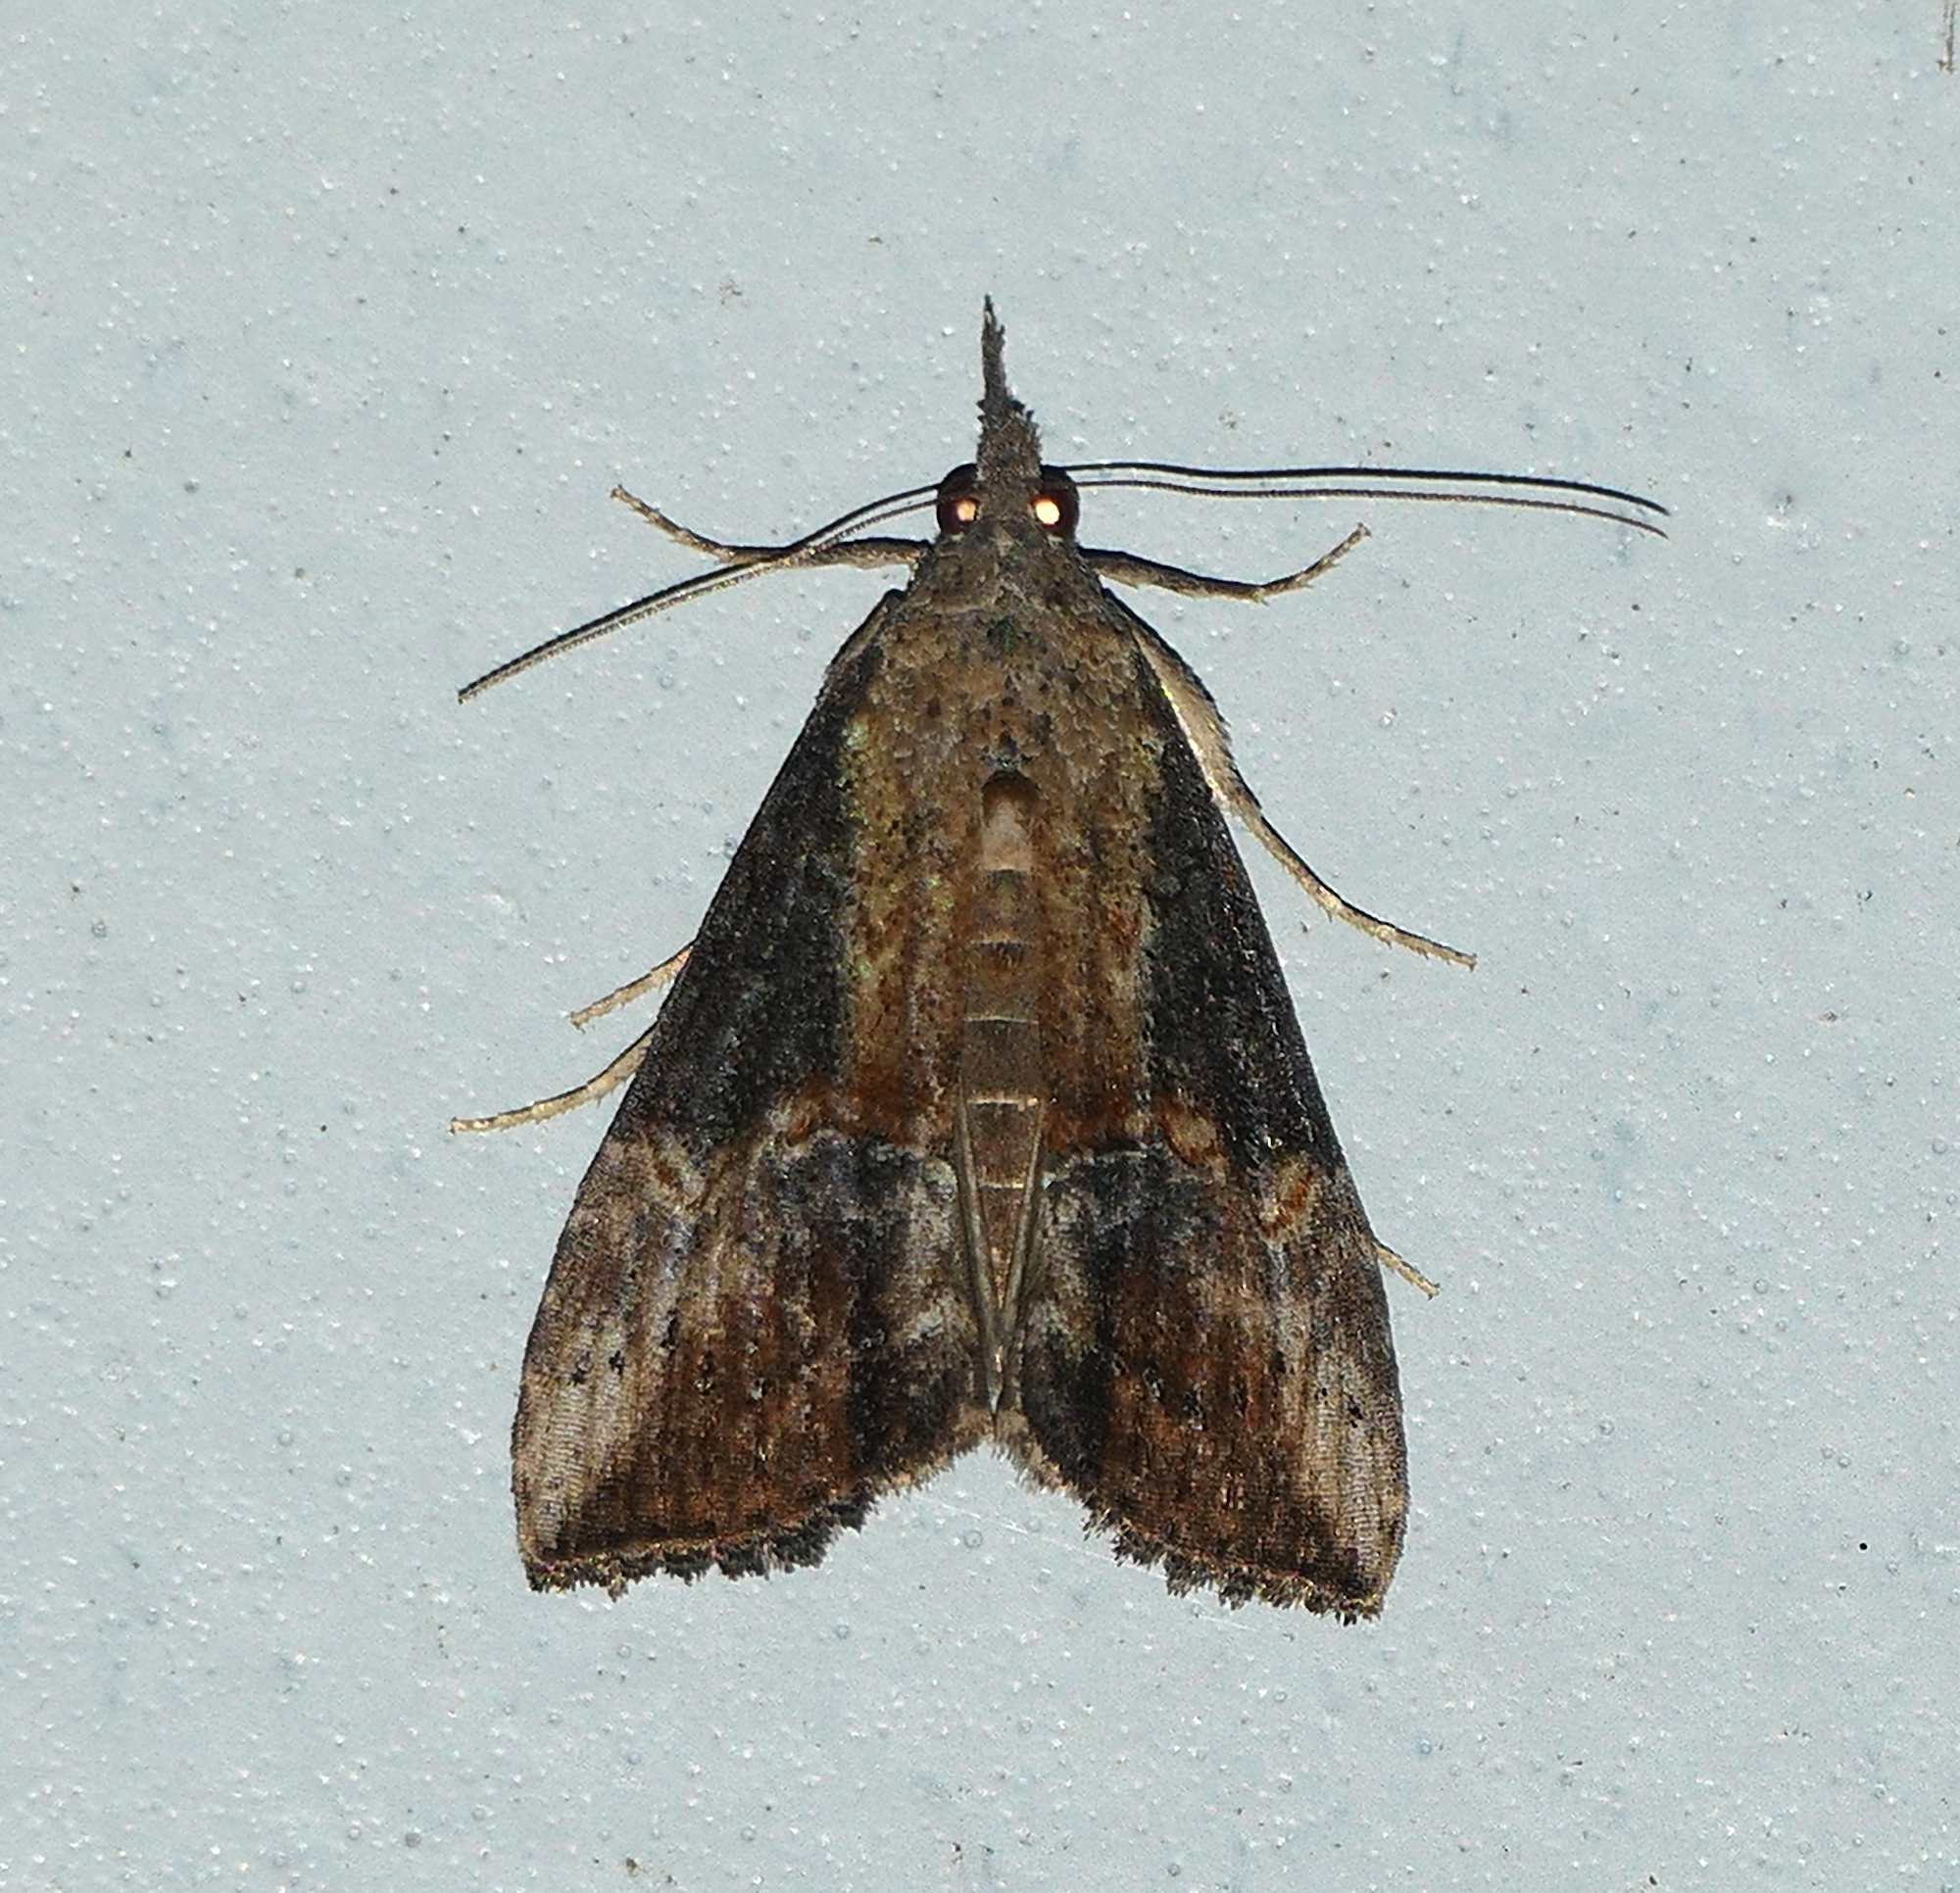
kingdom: Animalia
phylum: Arthropoda
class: Insecta
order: Lepidoptera
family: Erebidae
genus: Hypena
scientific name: Hypena scabra
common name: Green cloverworm
